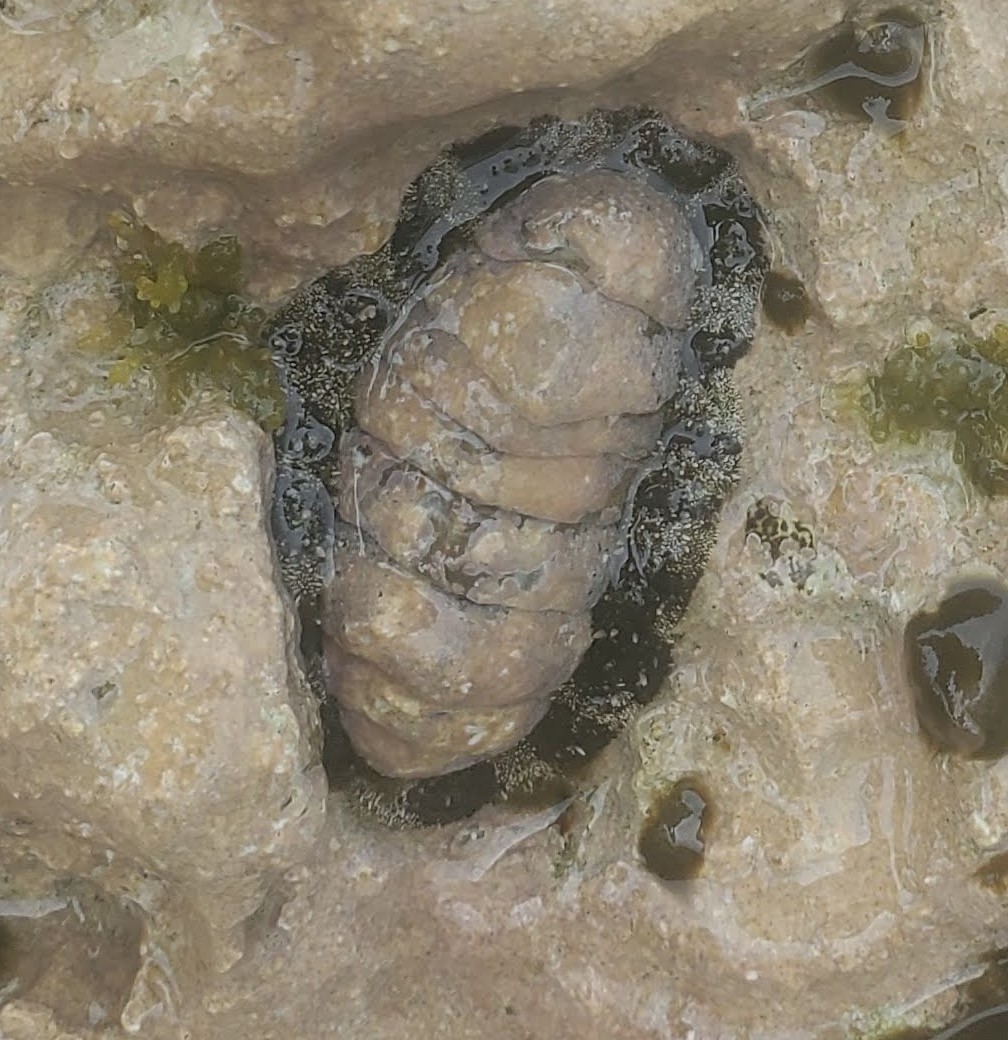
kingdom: Animalia
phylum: Mollusca
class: Polyplacophora
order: Chitonida
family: Chitonidae
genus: Acanthopleura
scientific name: Acanthopleura granulata
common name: West indian fuzzy chiton
